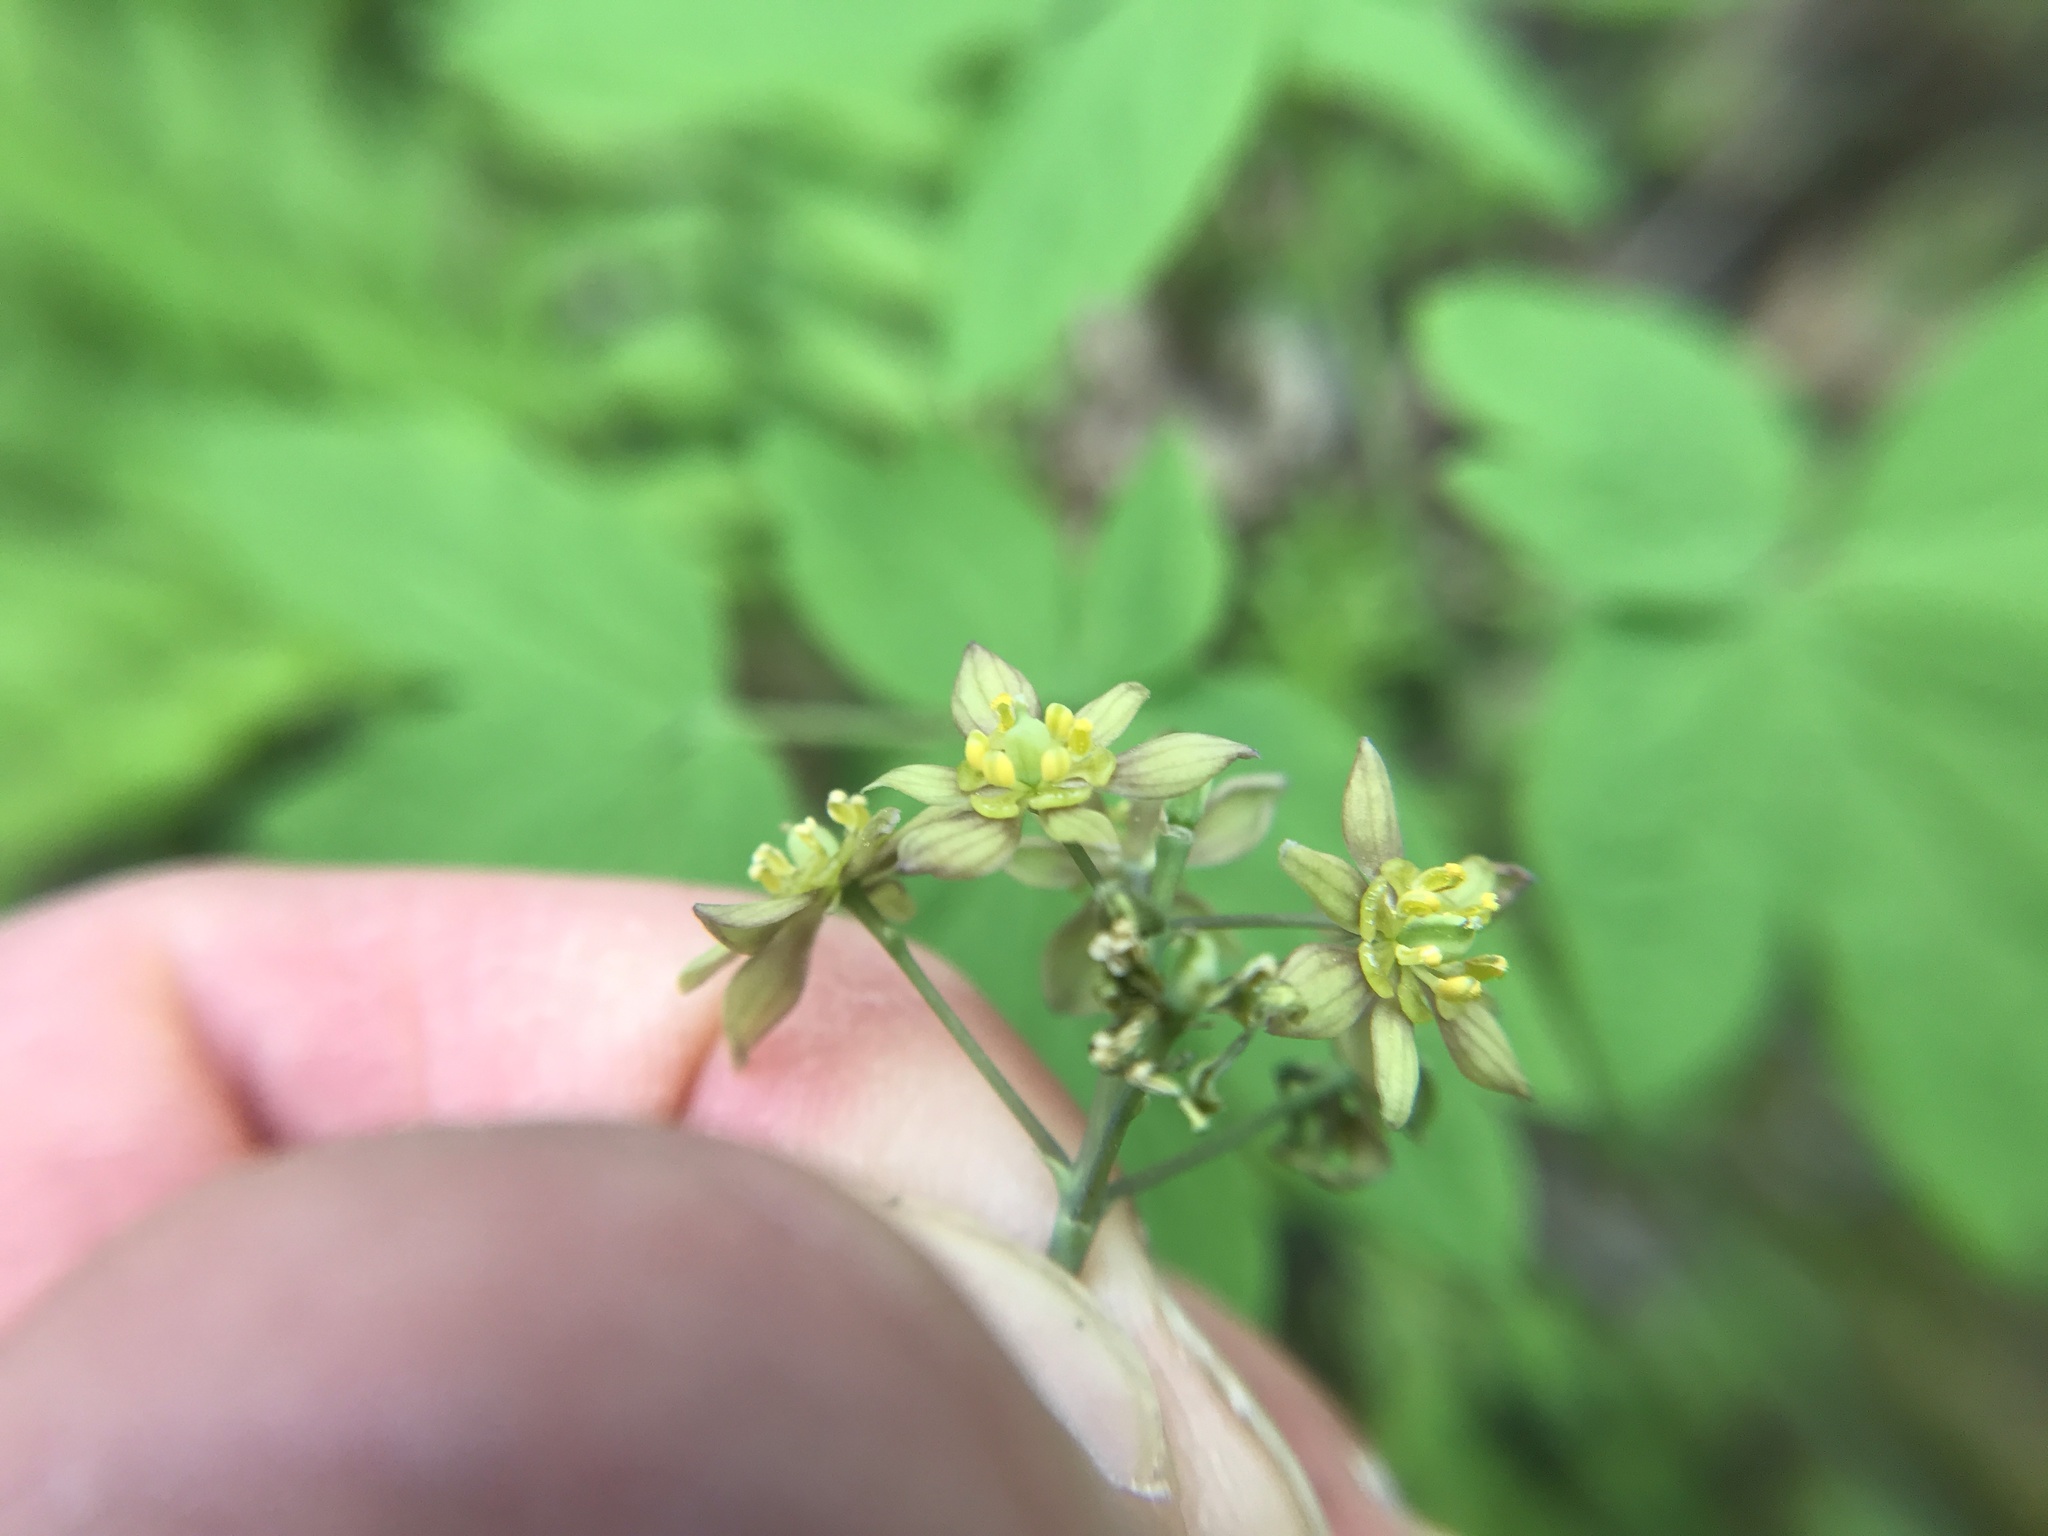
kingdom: Plantae
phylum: Tracheophyta
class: Magnoliopsida
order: Ranunculales
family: Berberidaceae
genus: Caulophyllum
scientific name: Caulophyllum thalictroides
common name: Blue cohosh
